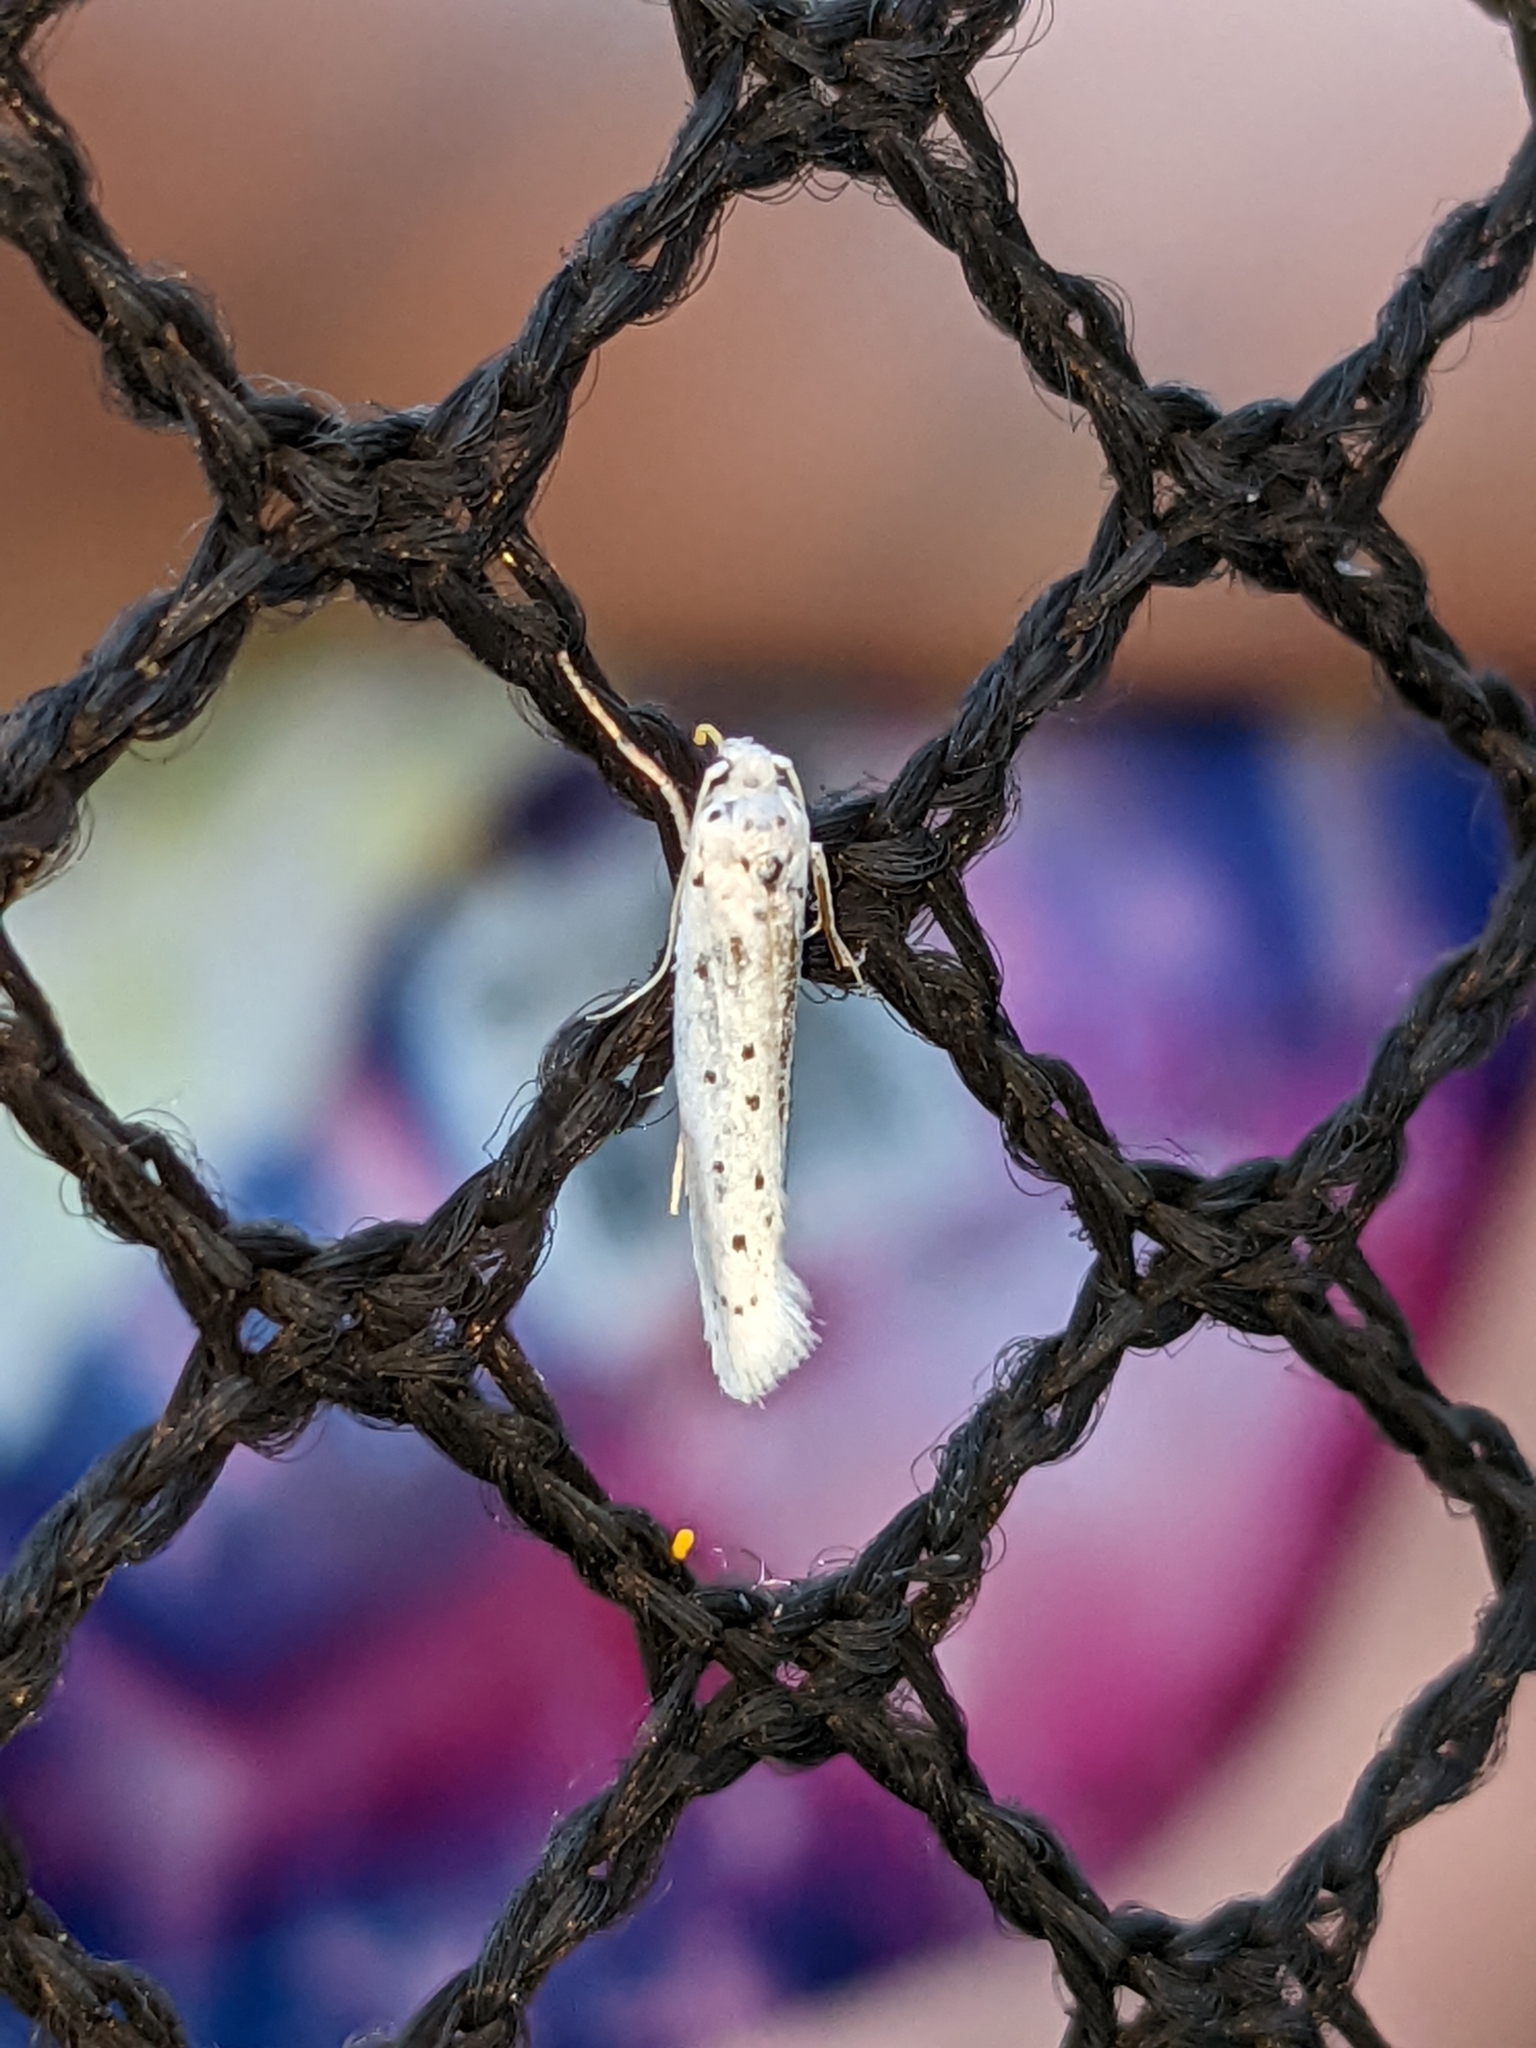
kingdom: Animalia
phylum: Arthropoda
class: Insecta
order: Lepidoptera
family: Yponomeutidae
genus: Yponomeuta
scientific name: Yponomeuta multipunctella
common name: American ermine moth
